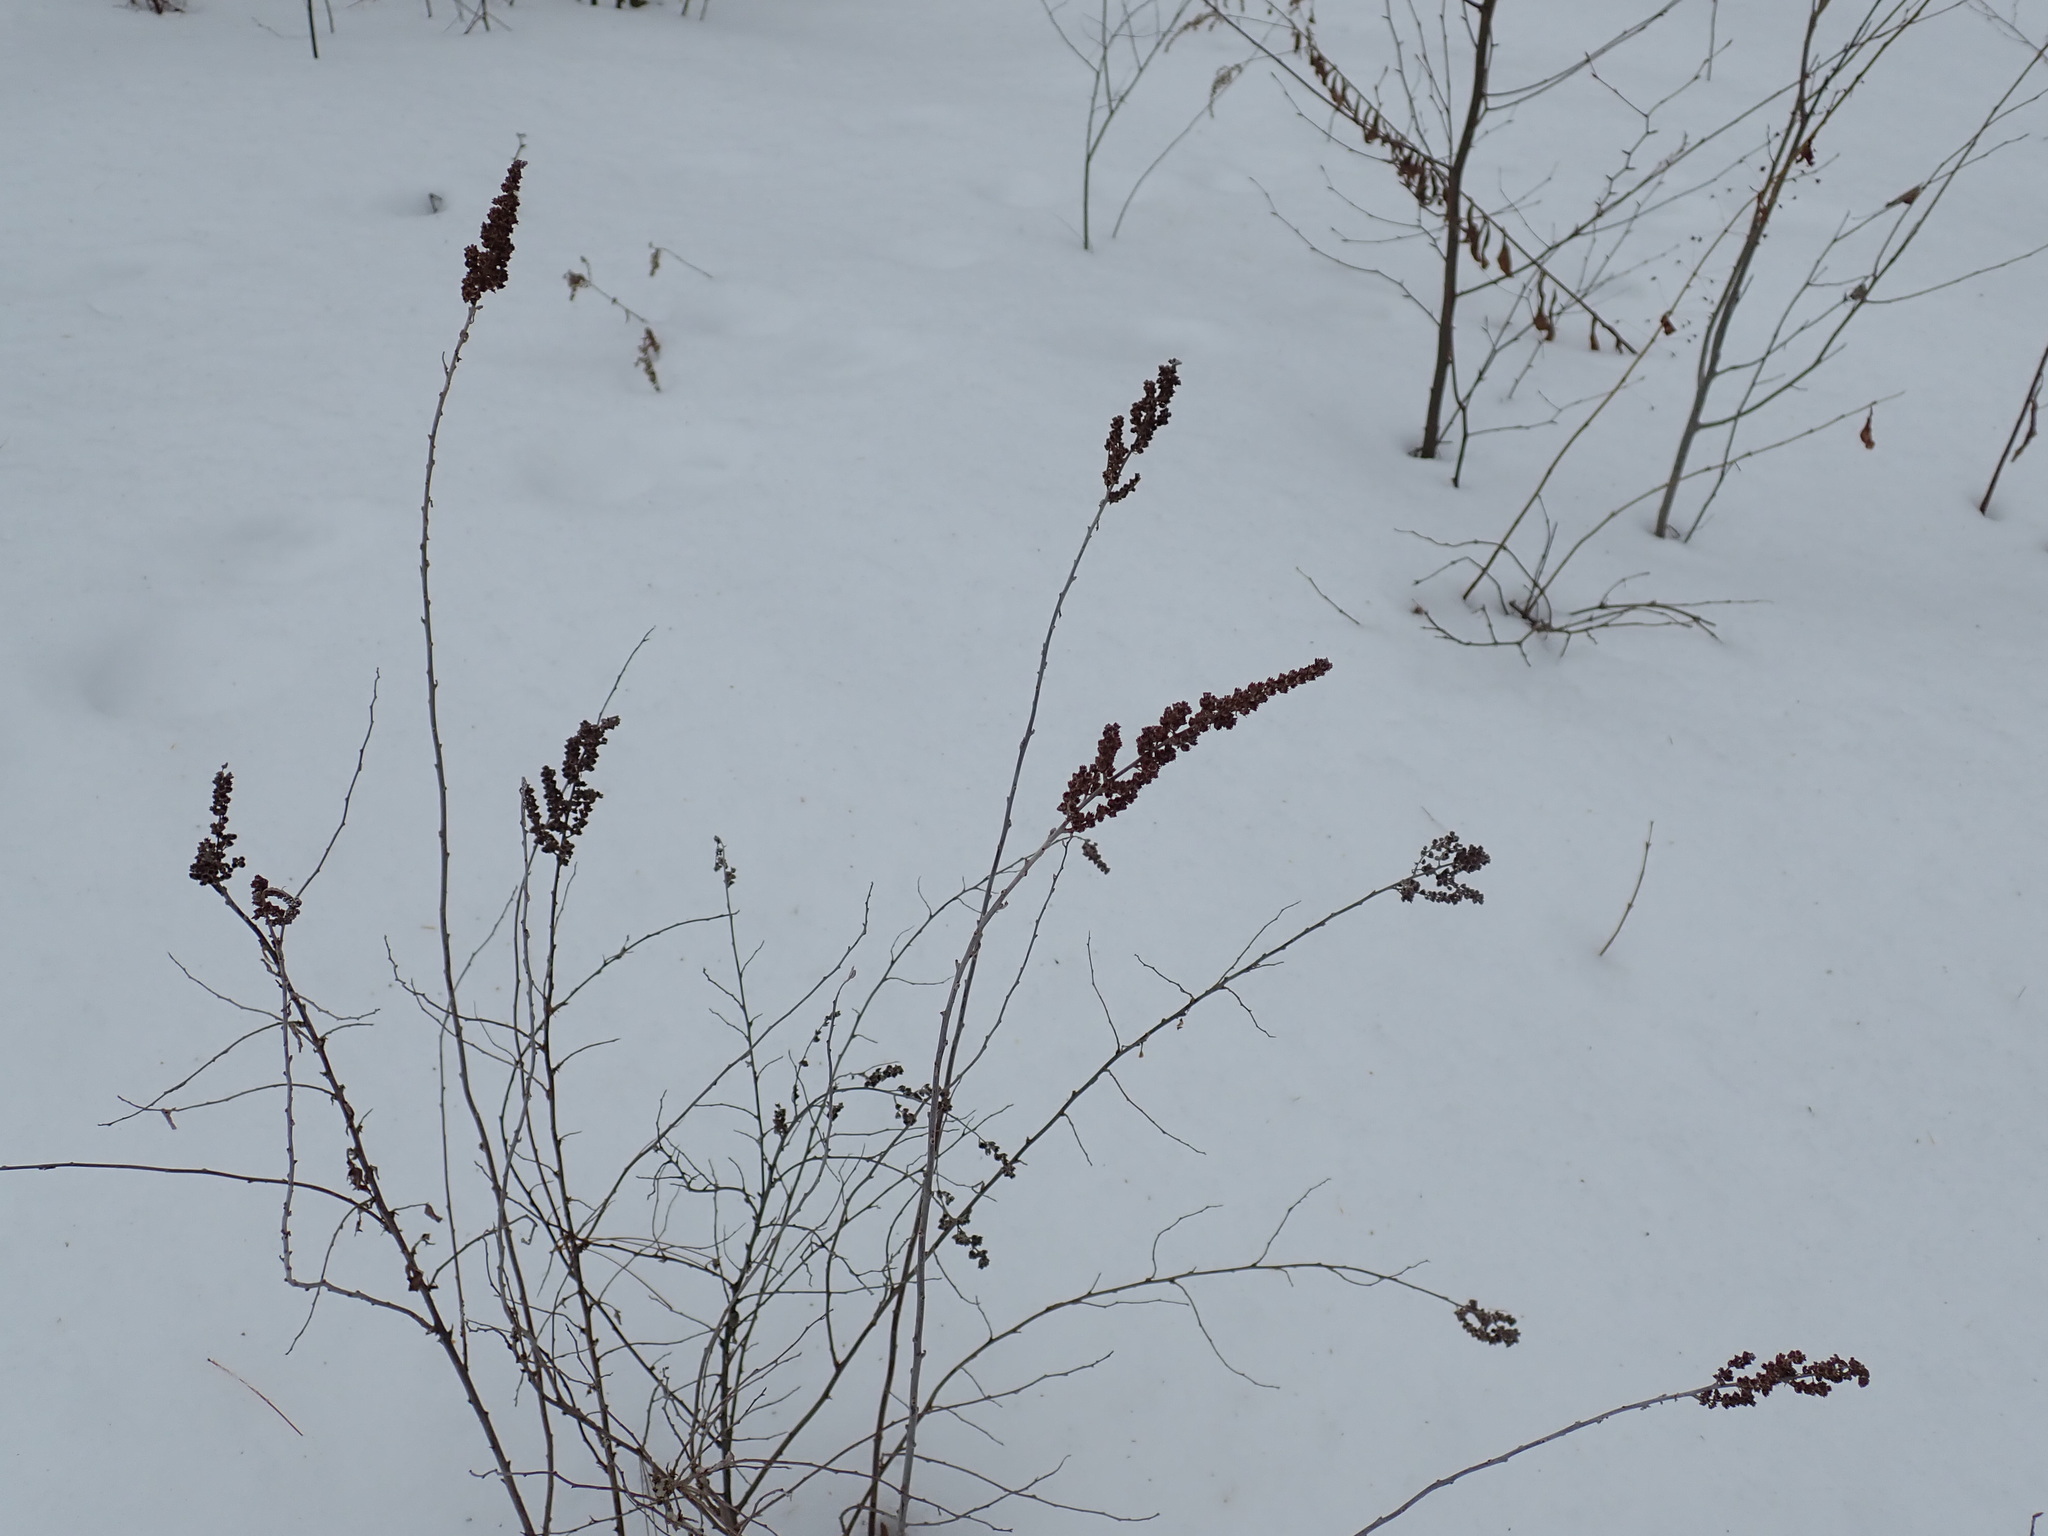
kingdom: Plantae
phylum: Tracheophyta
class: Magnoliopsida
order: Rosales
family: Rosaceae
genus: Spiraea
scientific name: Spiraea tomentosa
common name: Hardhack
